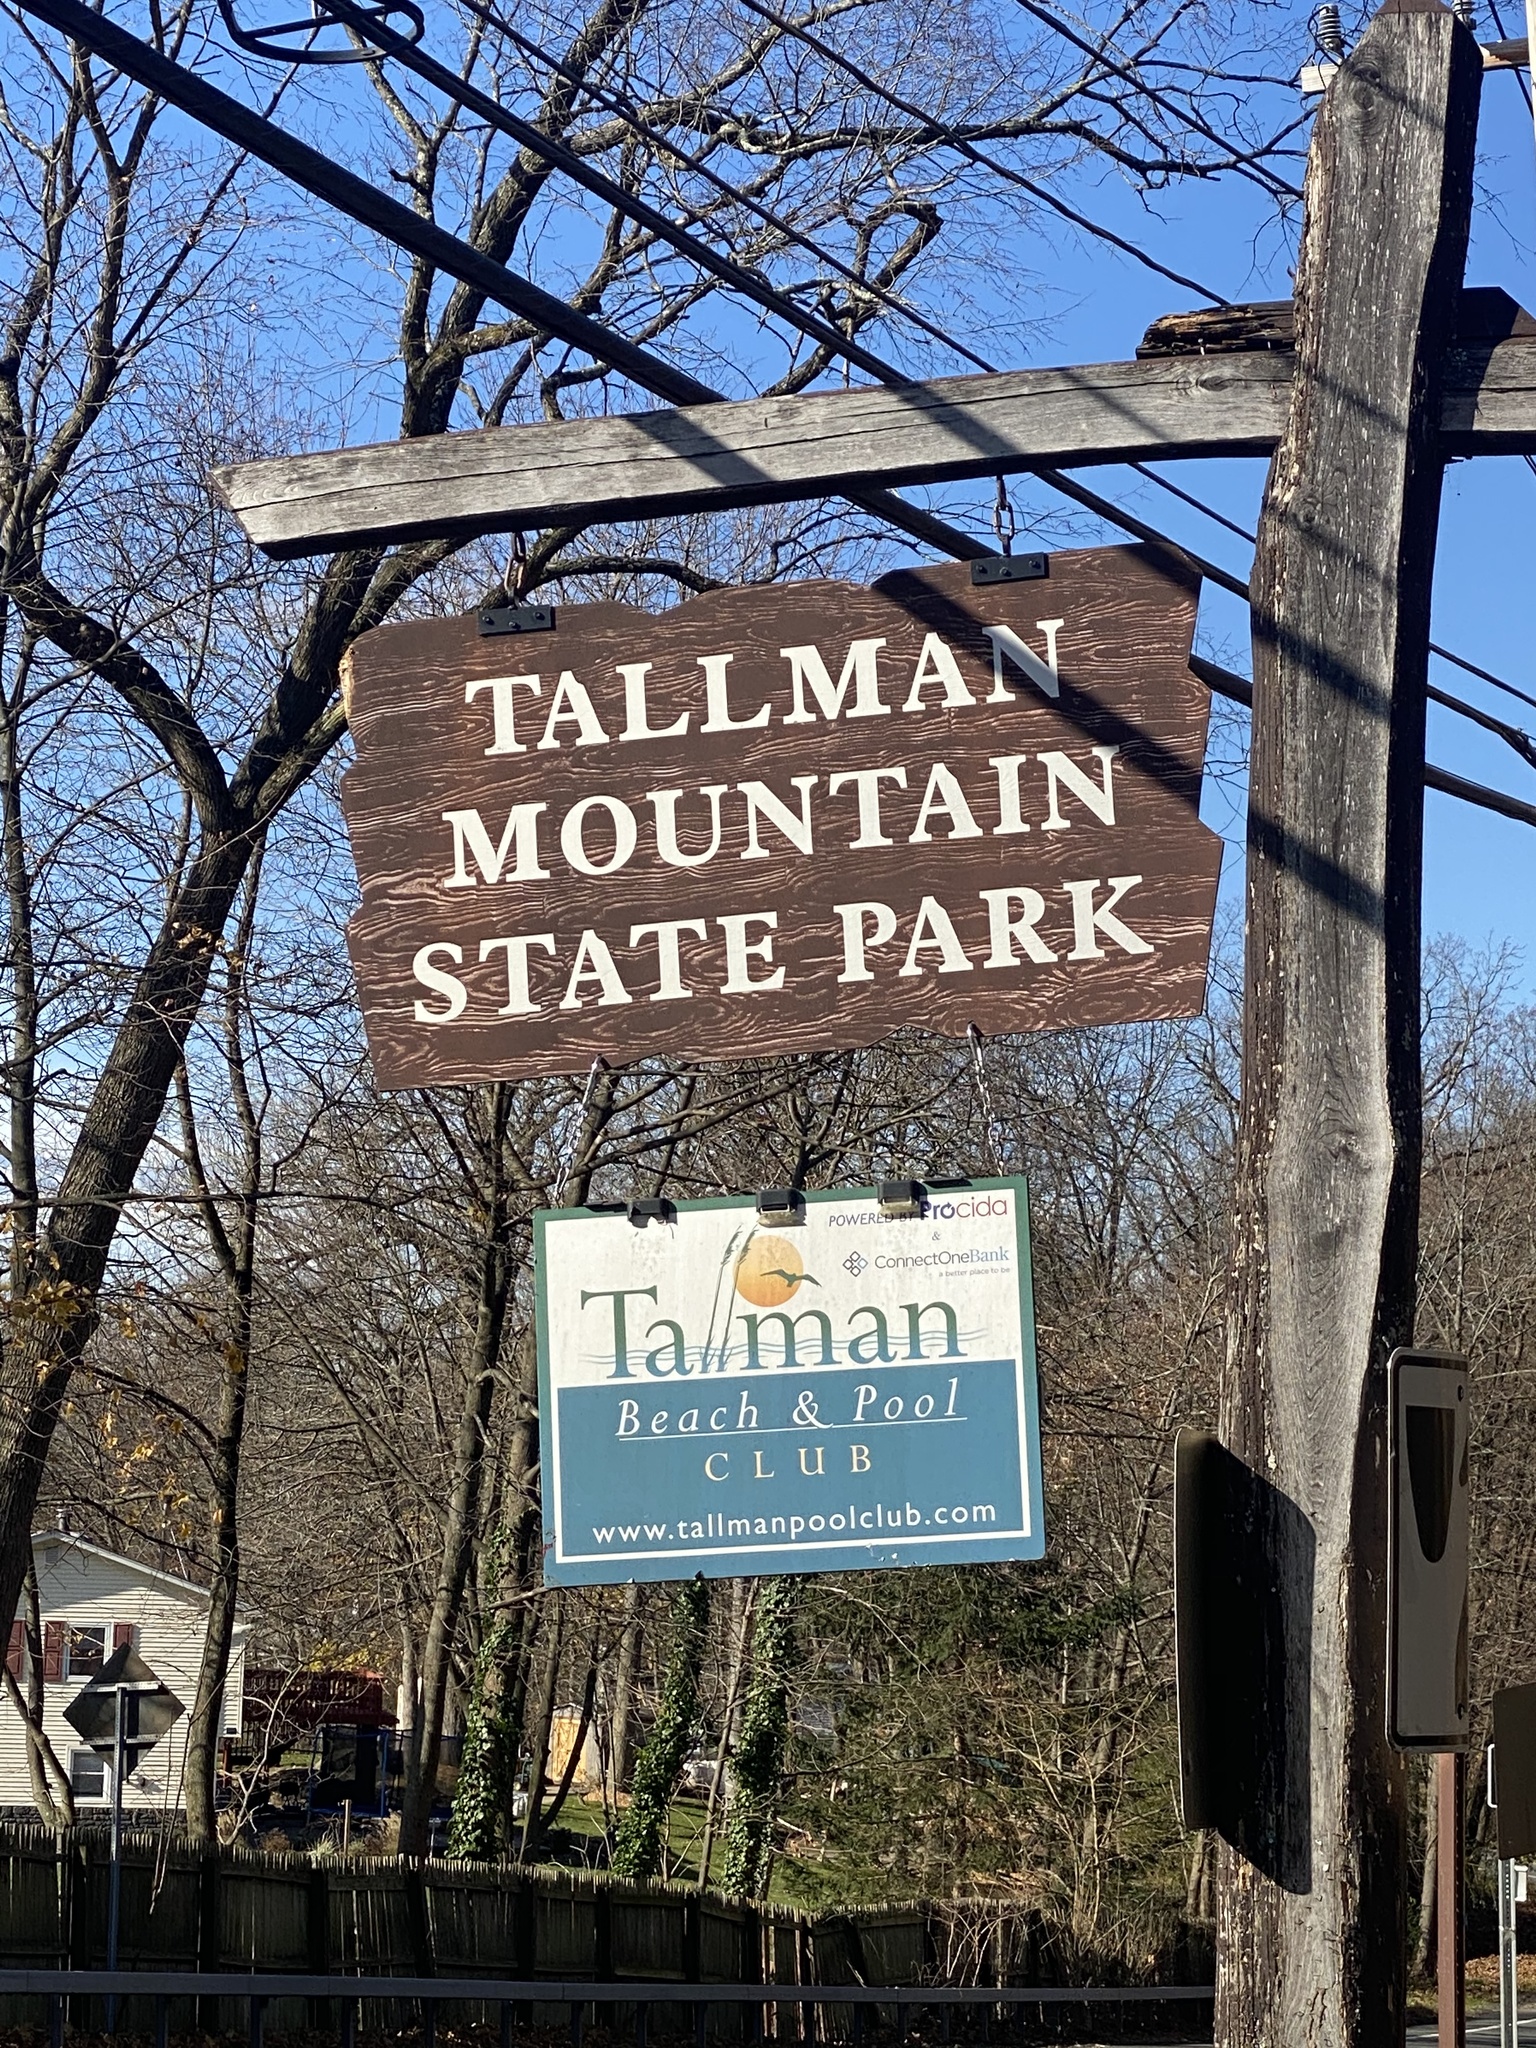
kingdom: Plantae
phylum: Tracheophyta
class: Magnoliopsida
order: Fagales
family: Fagaceae
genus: Quercus
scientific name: Quercus alba
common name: White oak
